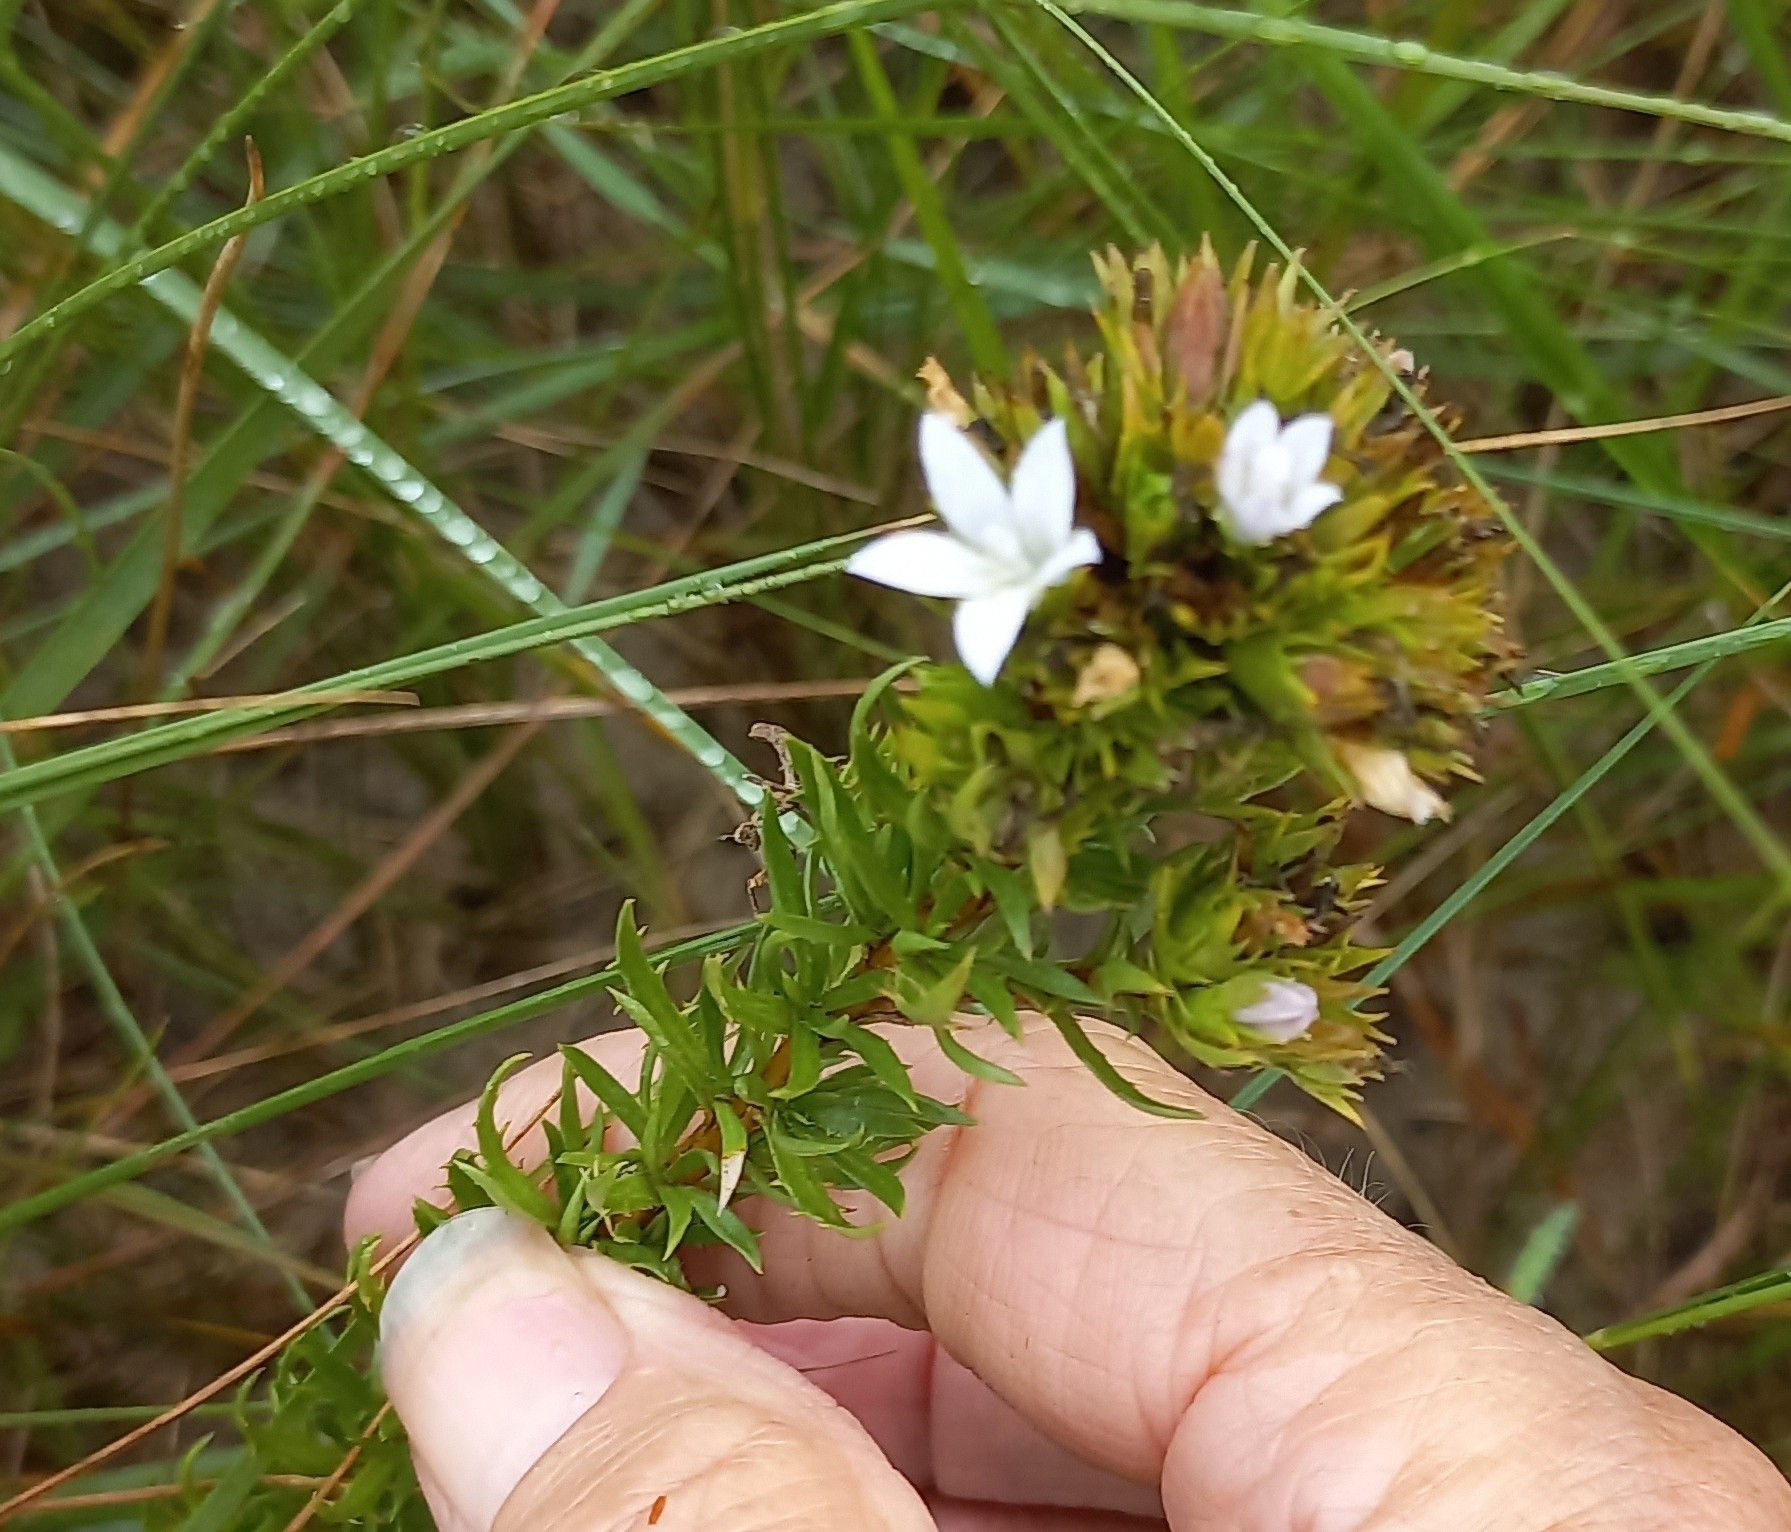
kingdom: Plantae
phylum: Tracheophyta
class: Magnoliopsida
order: Asterales
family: Campanulaceae
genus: Roella
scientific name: Roella glomerata
